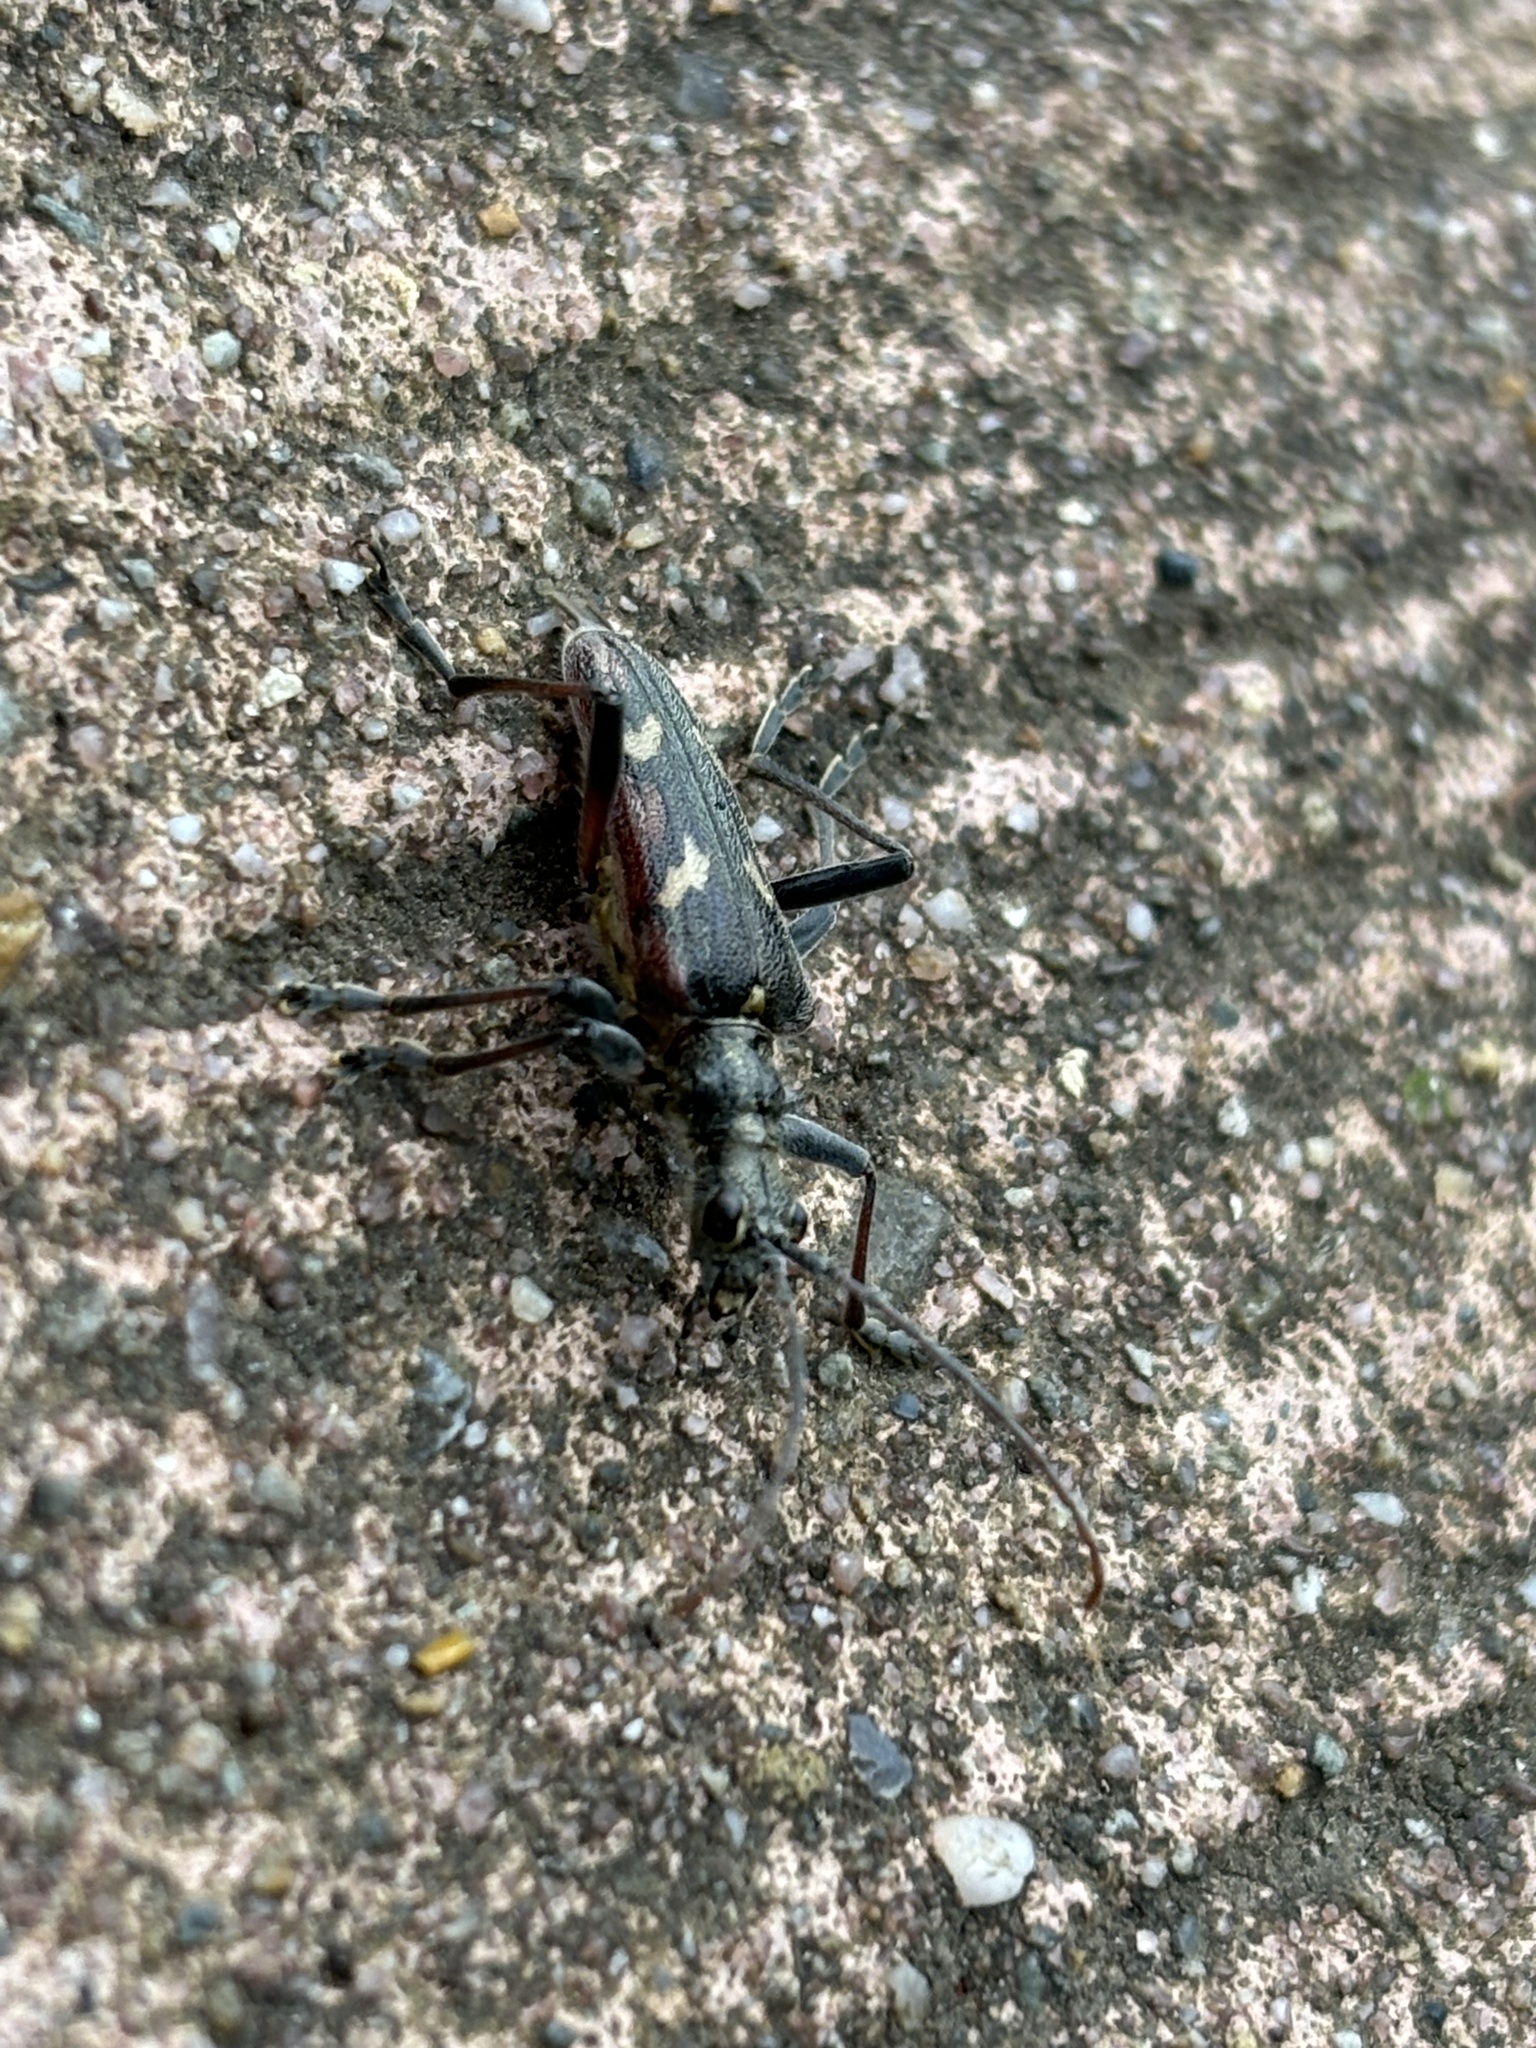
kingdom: Animalia
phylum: Arthropoda
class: Insecta
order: Coleoptera
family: Cerambycidae
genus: Rhagium
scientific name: Rhagium bifasciatum
